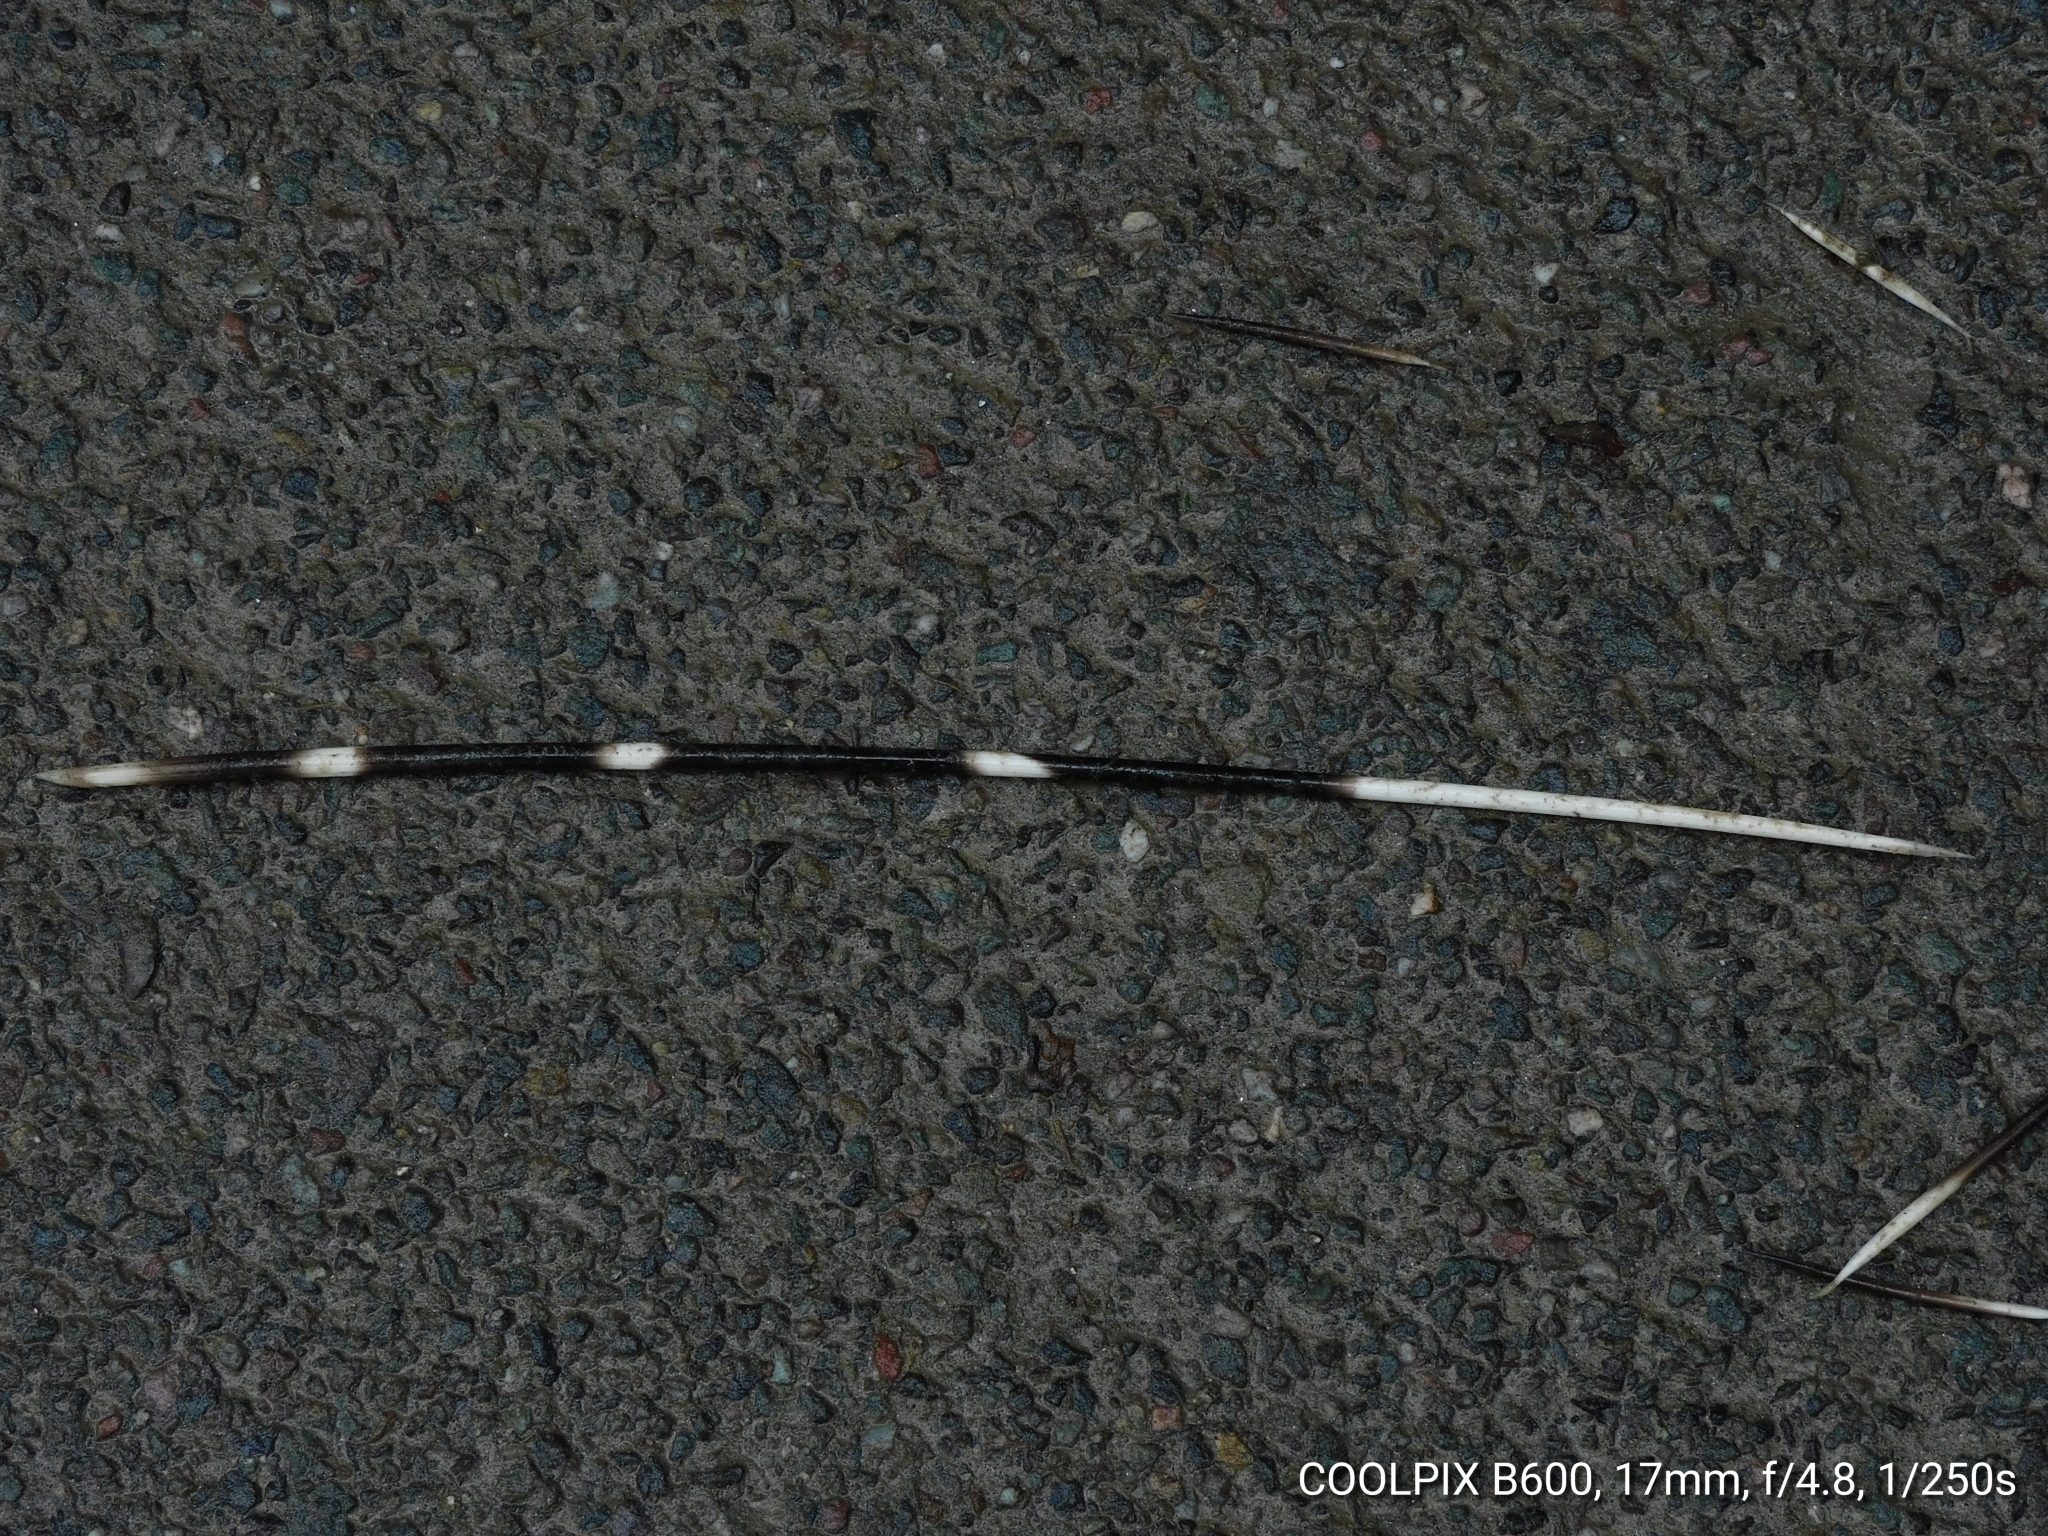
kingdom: Animalia
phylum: Chordata
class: Mammalia
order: Rodentia
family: Hystricidae
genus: Hystrix
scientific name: Hystrix indica
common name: Indian crested porcupine
